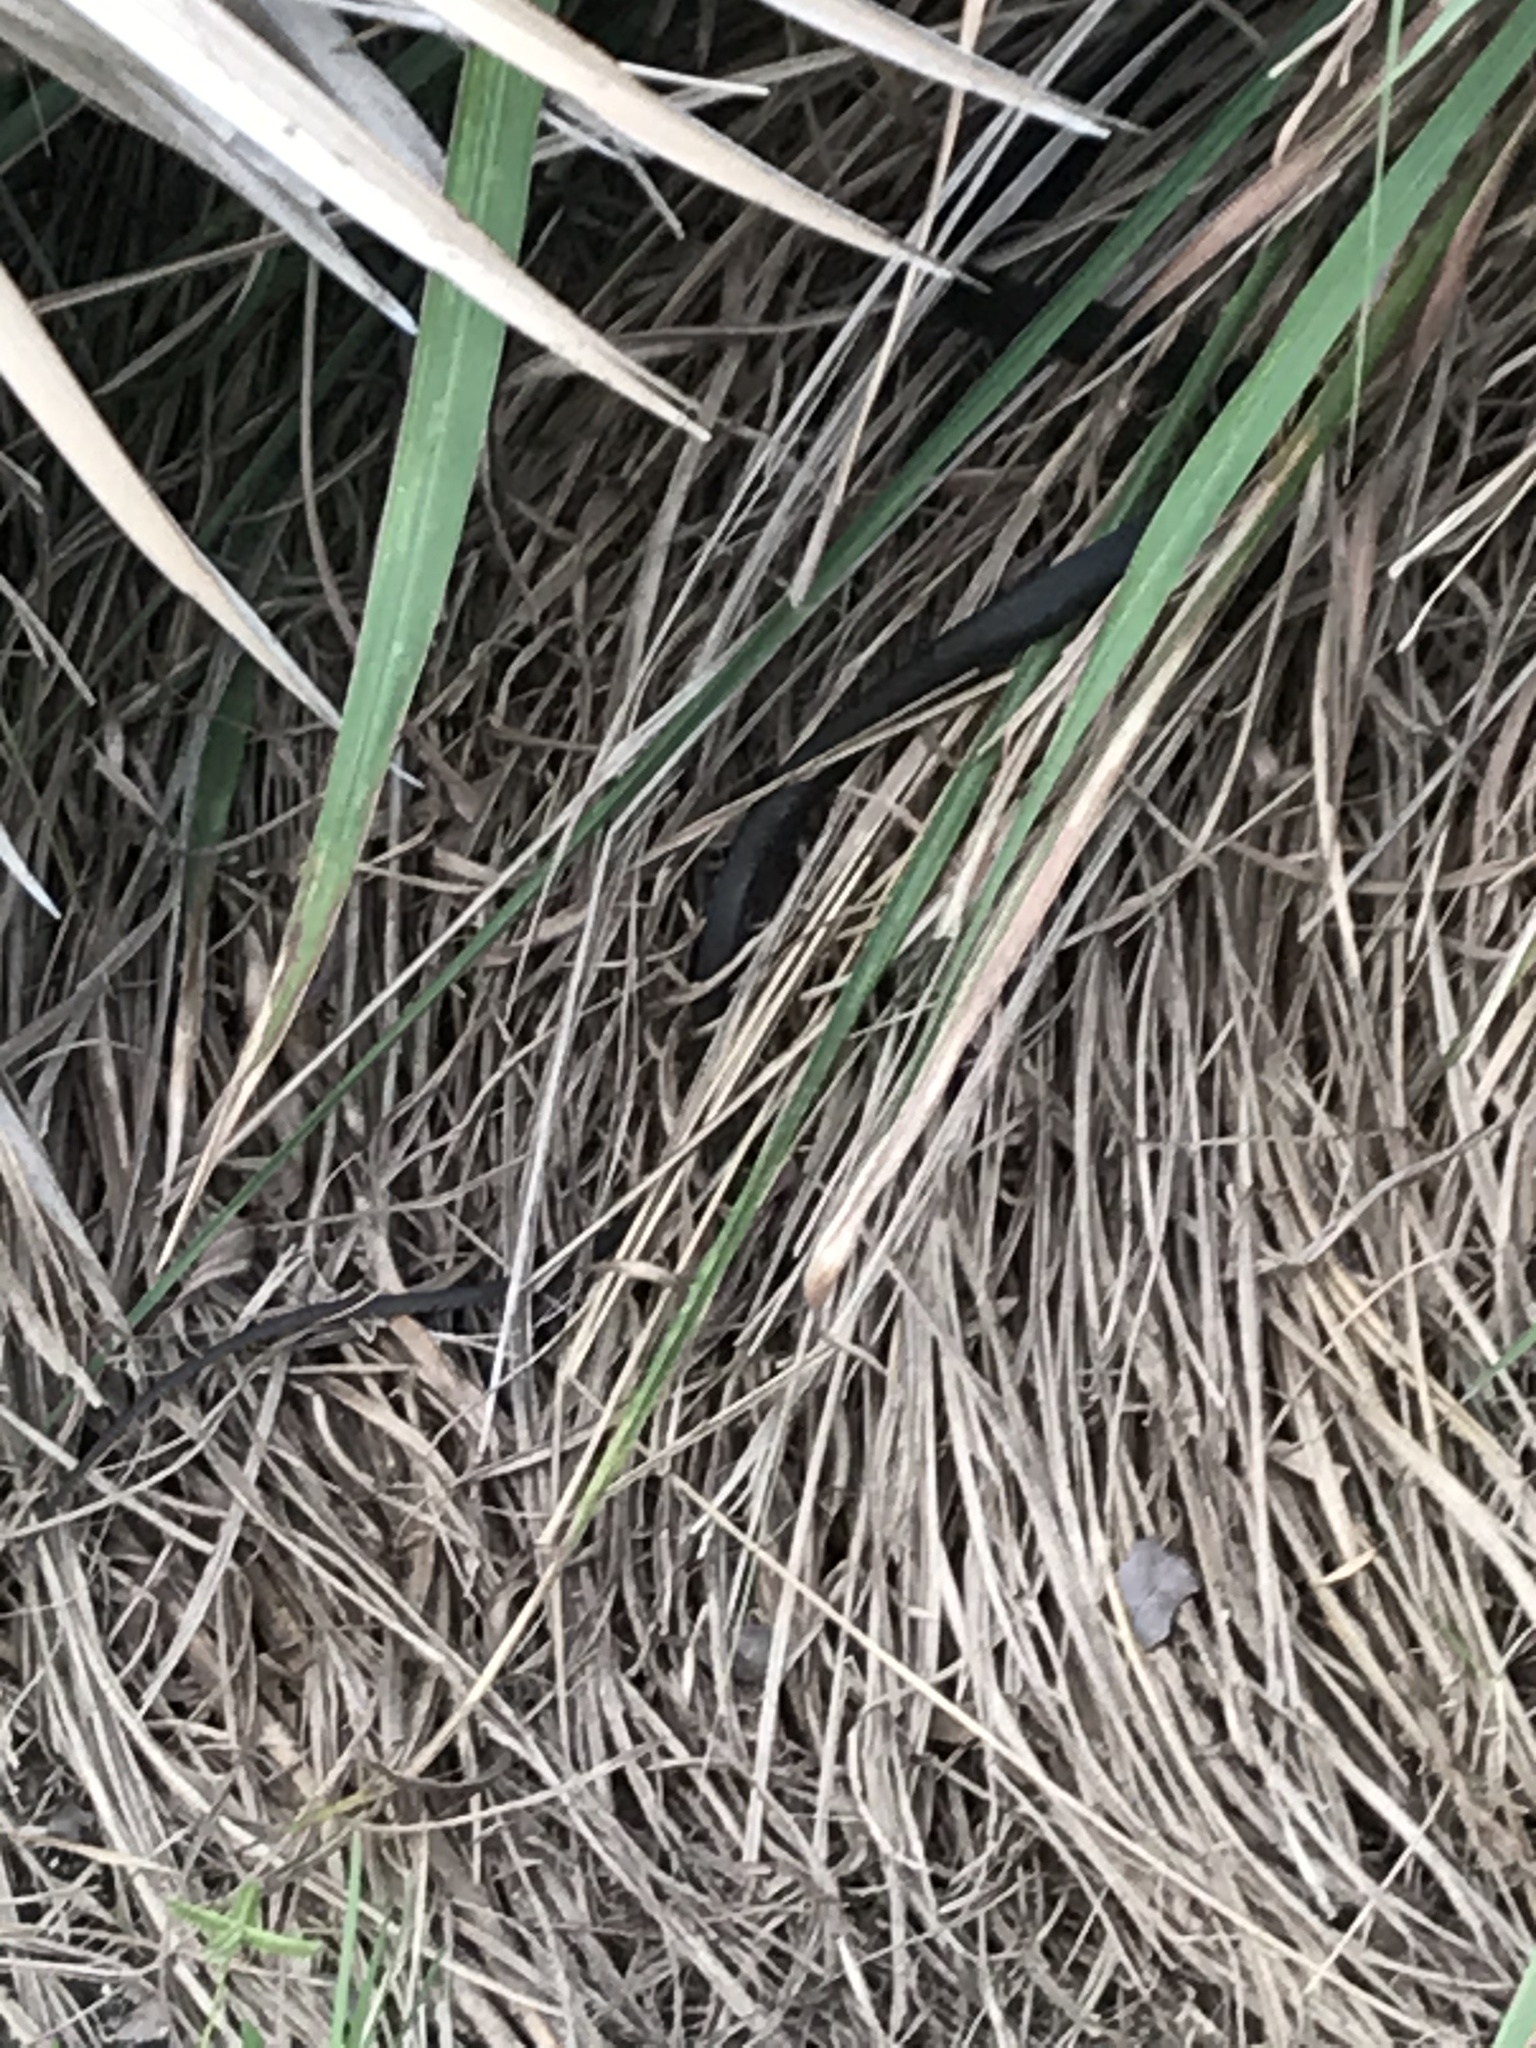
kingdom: Animalia
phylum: Chordata
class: Squamata
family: Colubridae
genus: Coluber
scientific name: Coluber constrictor
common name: Eastern racer
